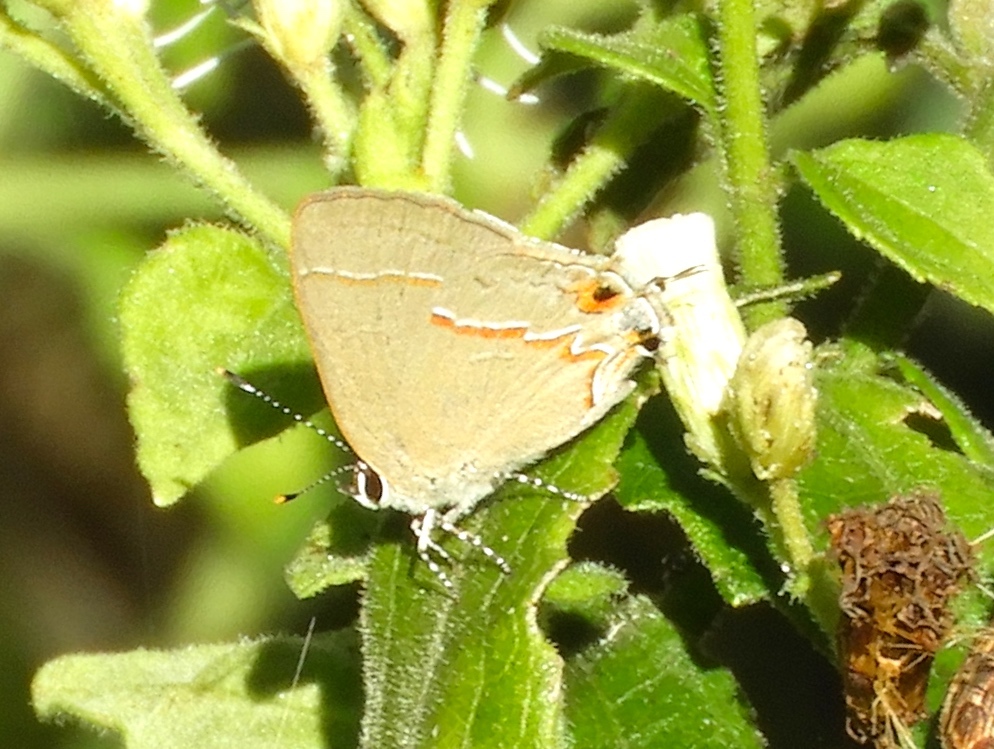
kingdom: Animalia
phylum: Arthropoda
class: Insecta
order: Lepidoptera
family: Lycaenidae
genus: Electrostrymon
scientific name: Electrostrymon endymion
